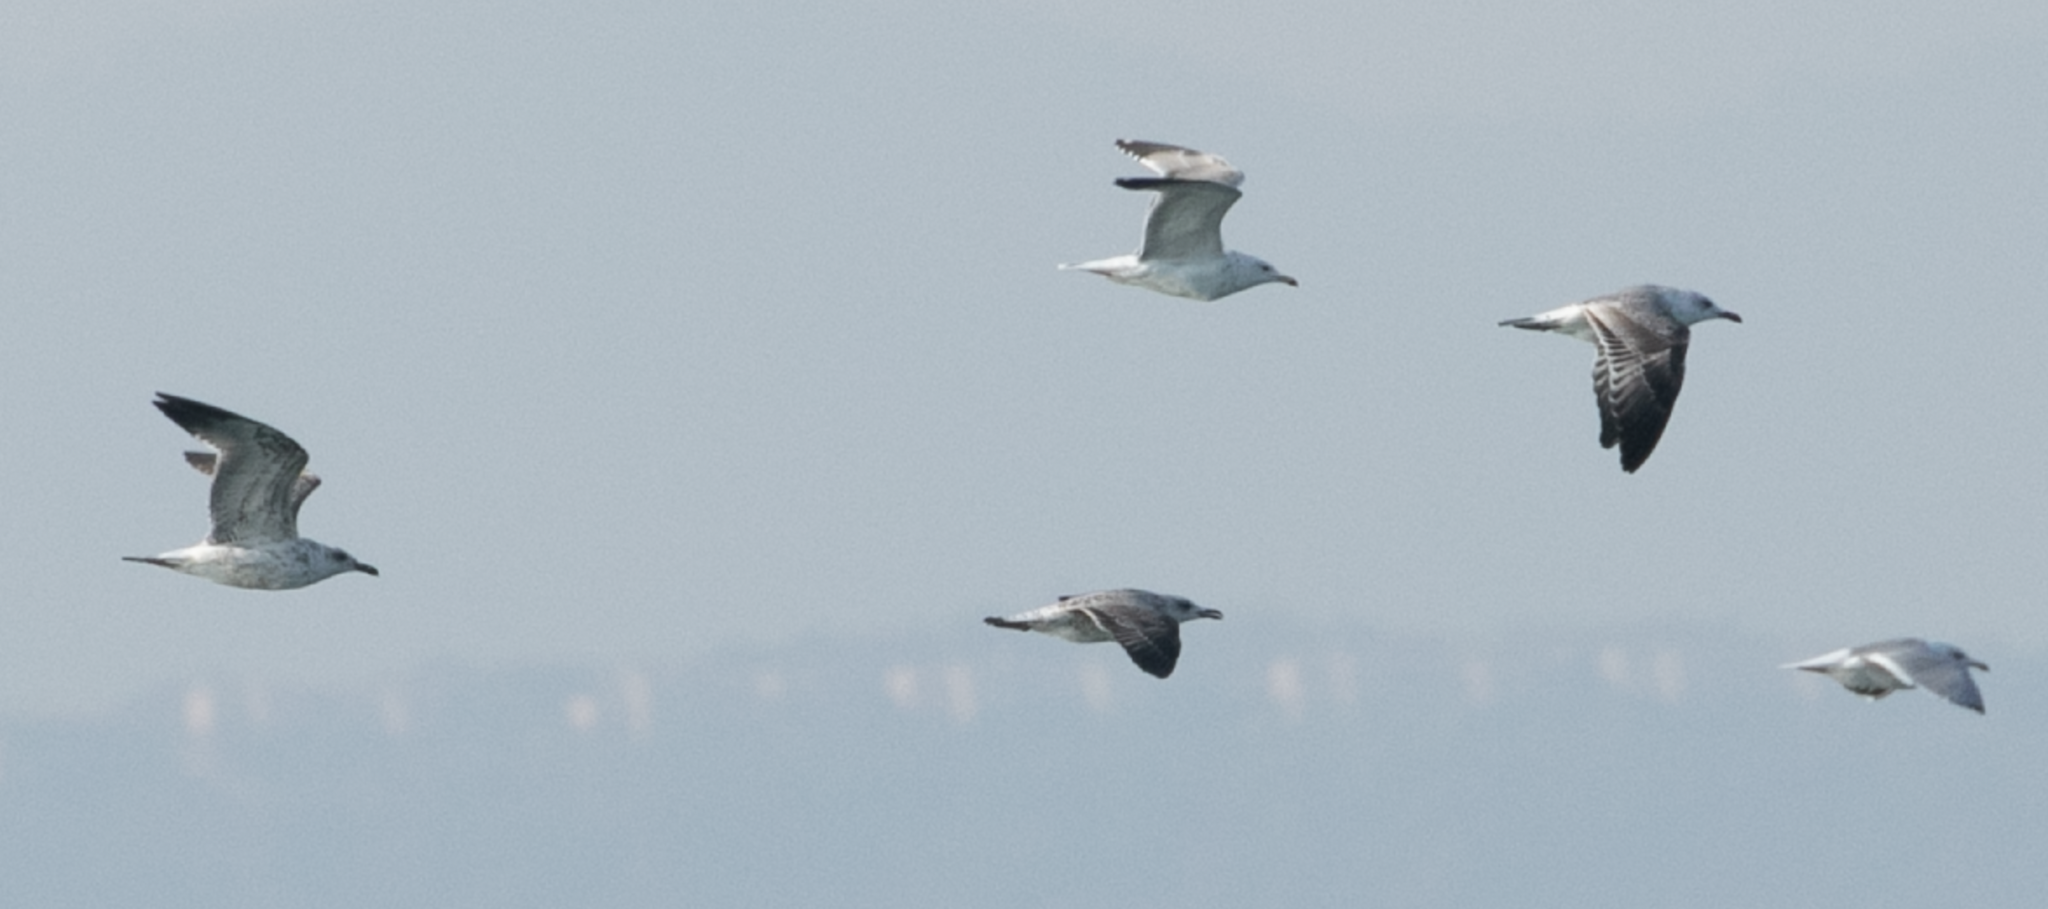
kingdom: Animalia
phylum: Chordata
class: Aves
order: Charadriiformes
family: Laridae
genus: Larus
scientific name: Larus michahellis
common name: Yellow-legged gull
